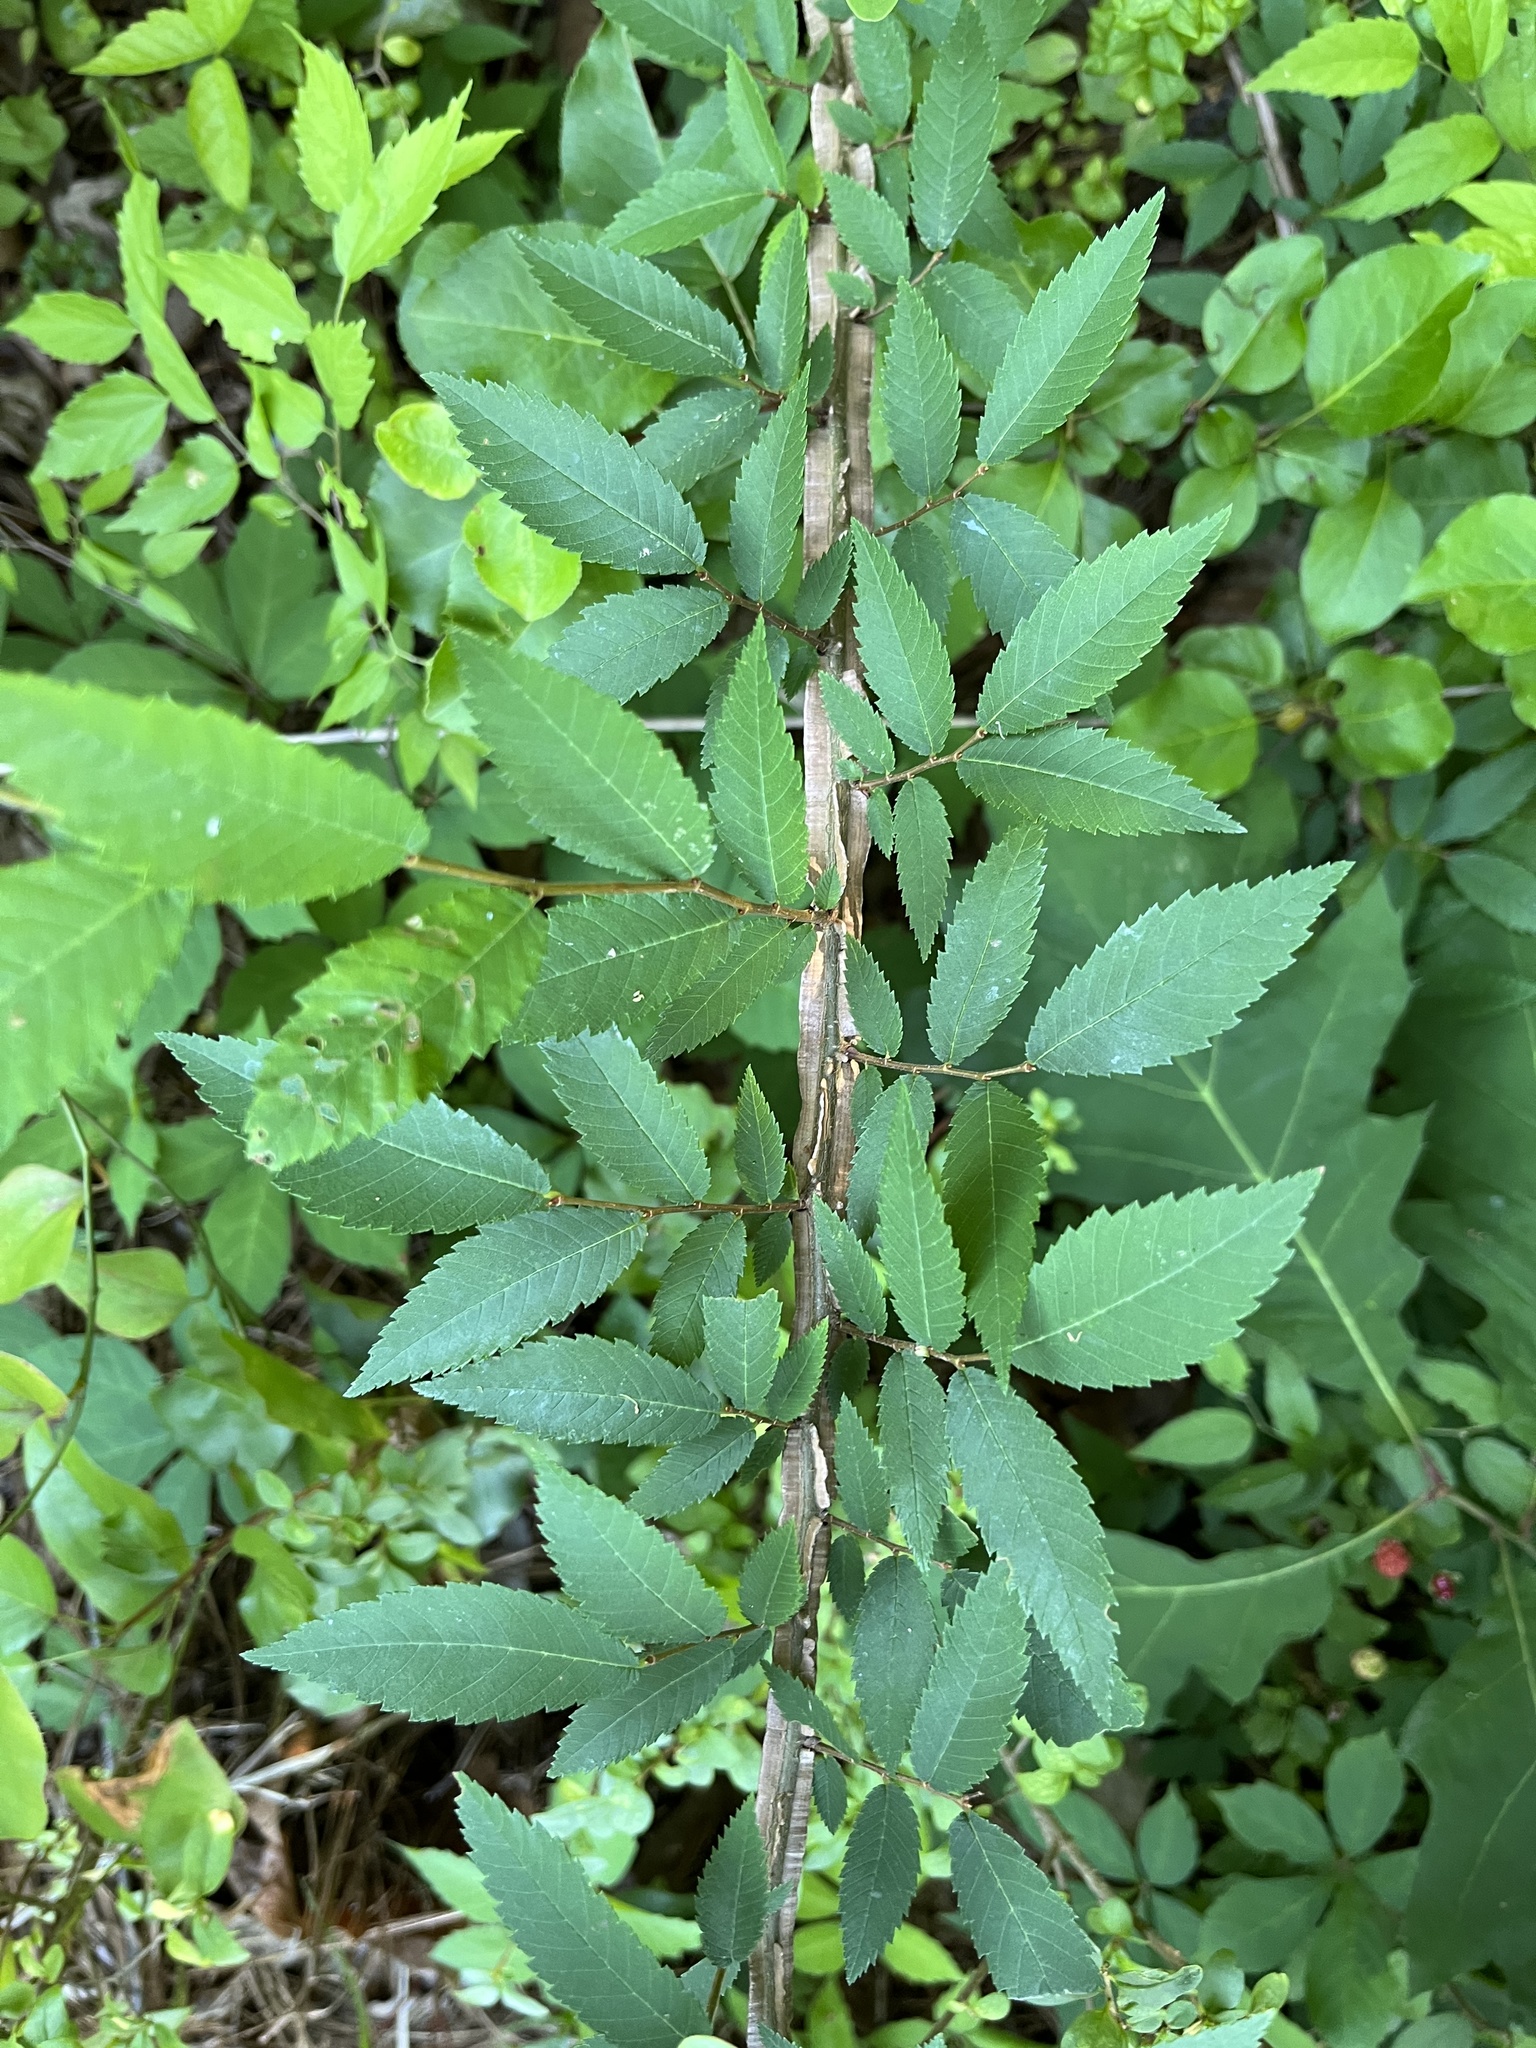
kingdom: Plantae
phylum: Tracheophyta
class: Magnoliopsida
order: Rosales
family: Ulmaceae
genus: Ulmus
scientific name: Ulmus alata
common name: Winged elm
